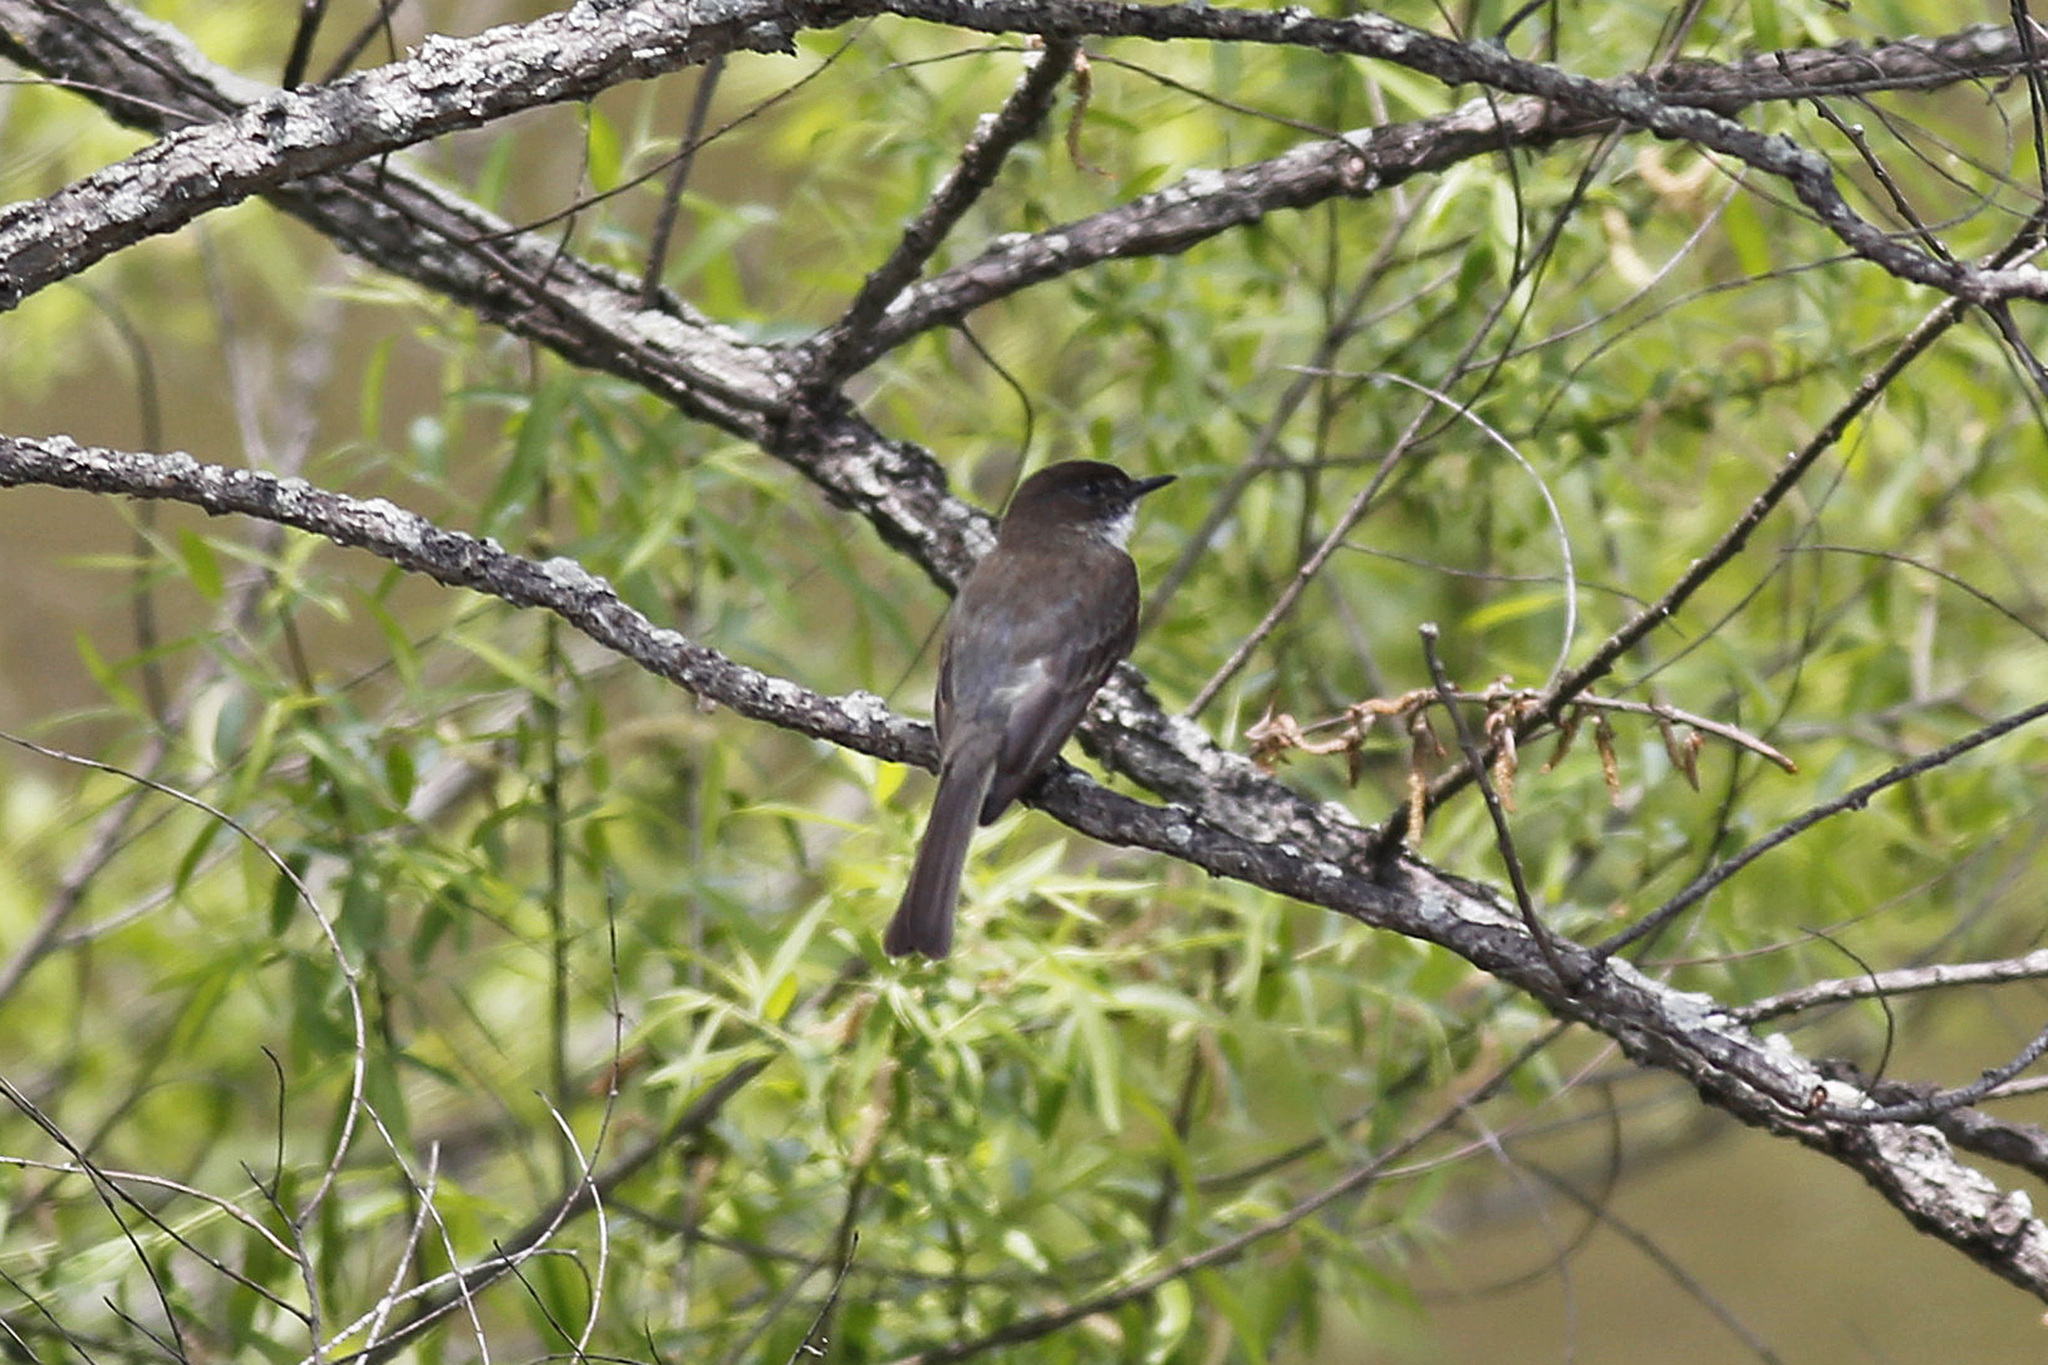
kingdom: Animalia
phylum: Chordata
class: Aves
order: Passeriformes
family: Tyrannidae
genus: Sayornis
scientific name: Sayornis phoebe
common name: Eastern phoebe
